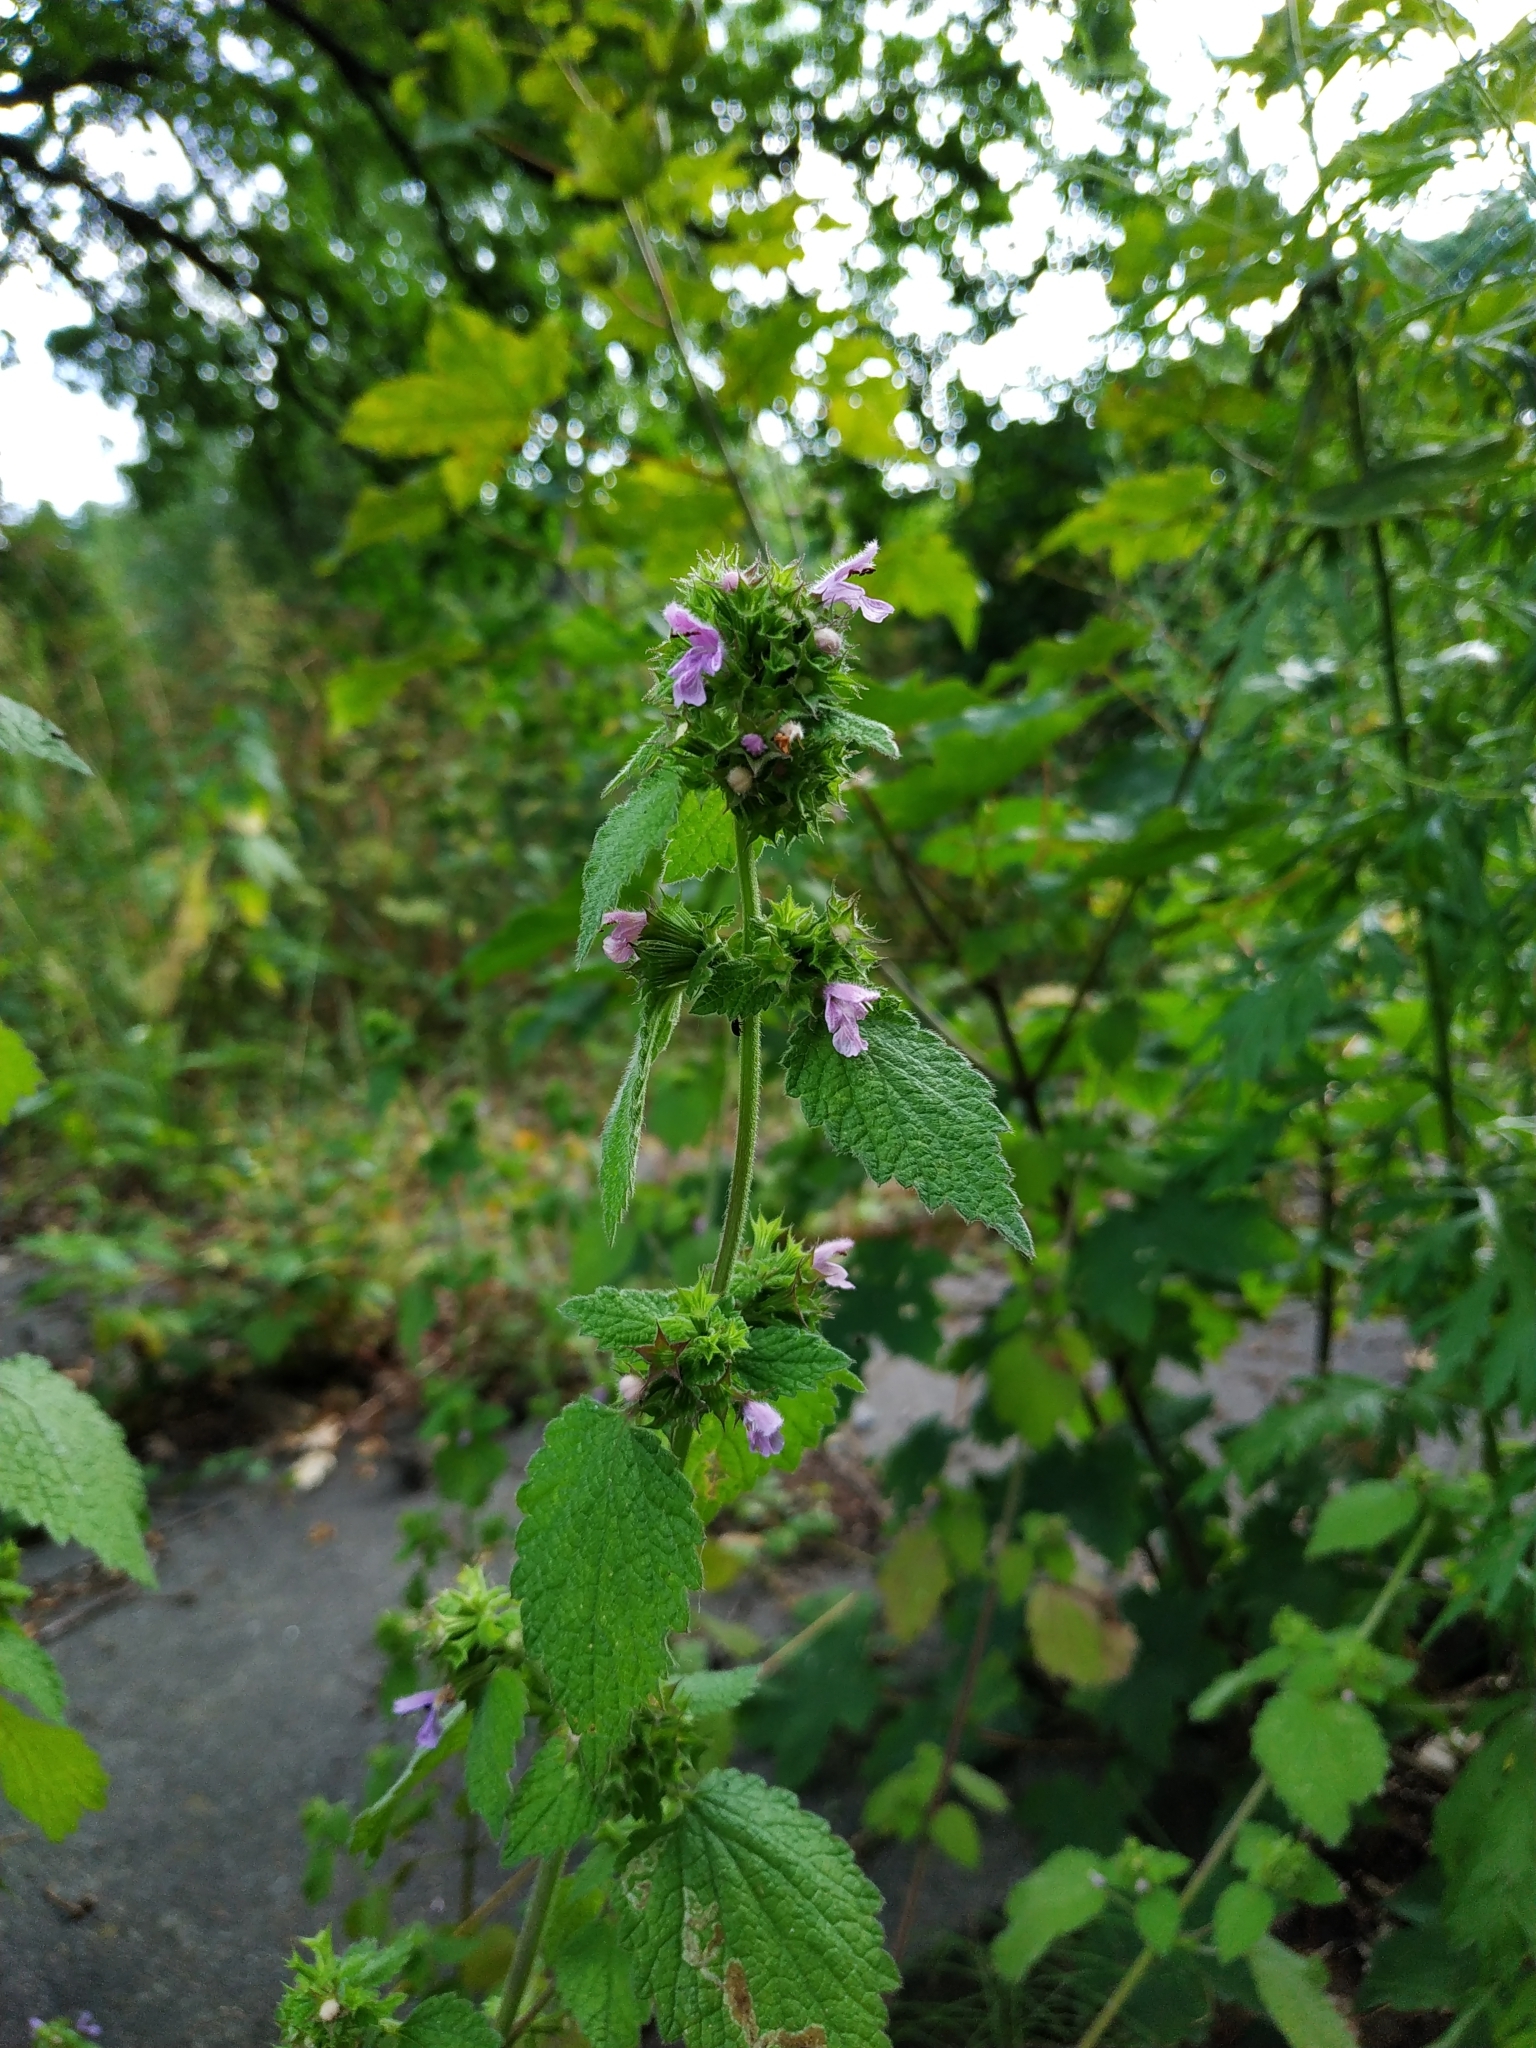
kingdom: Plantae
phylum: Tracheophyta
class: Magnoliopsida
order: Lamiales
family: Lamiaceae
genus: Ballota
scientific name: Ballota nigra
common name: Black horehound
